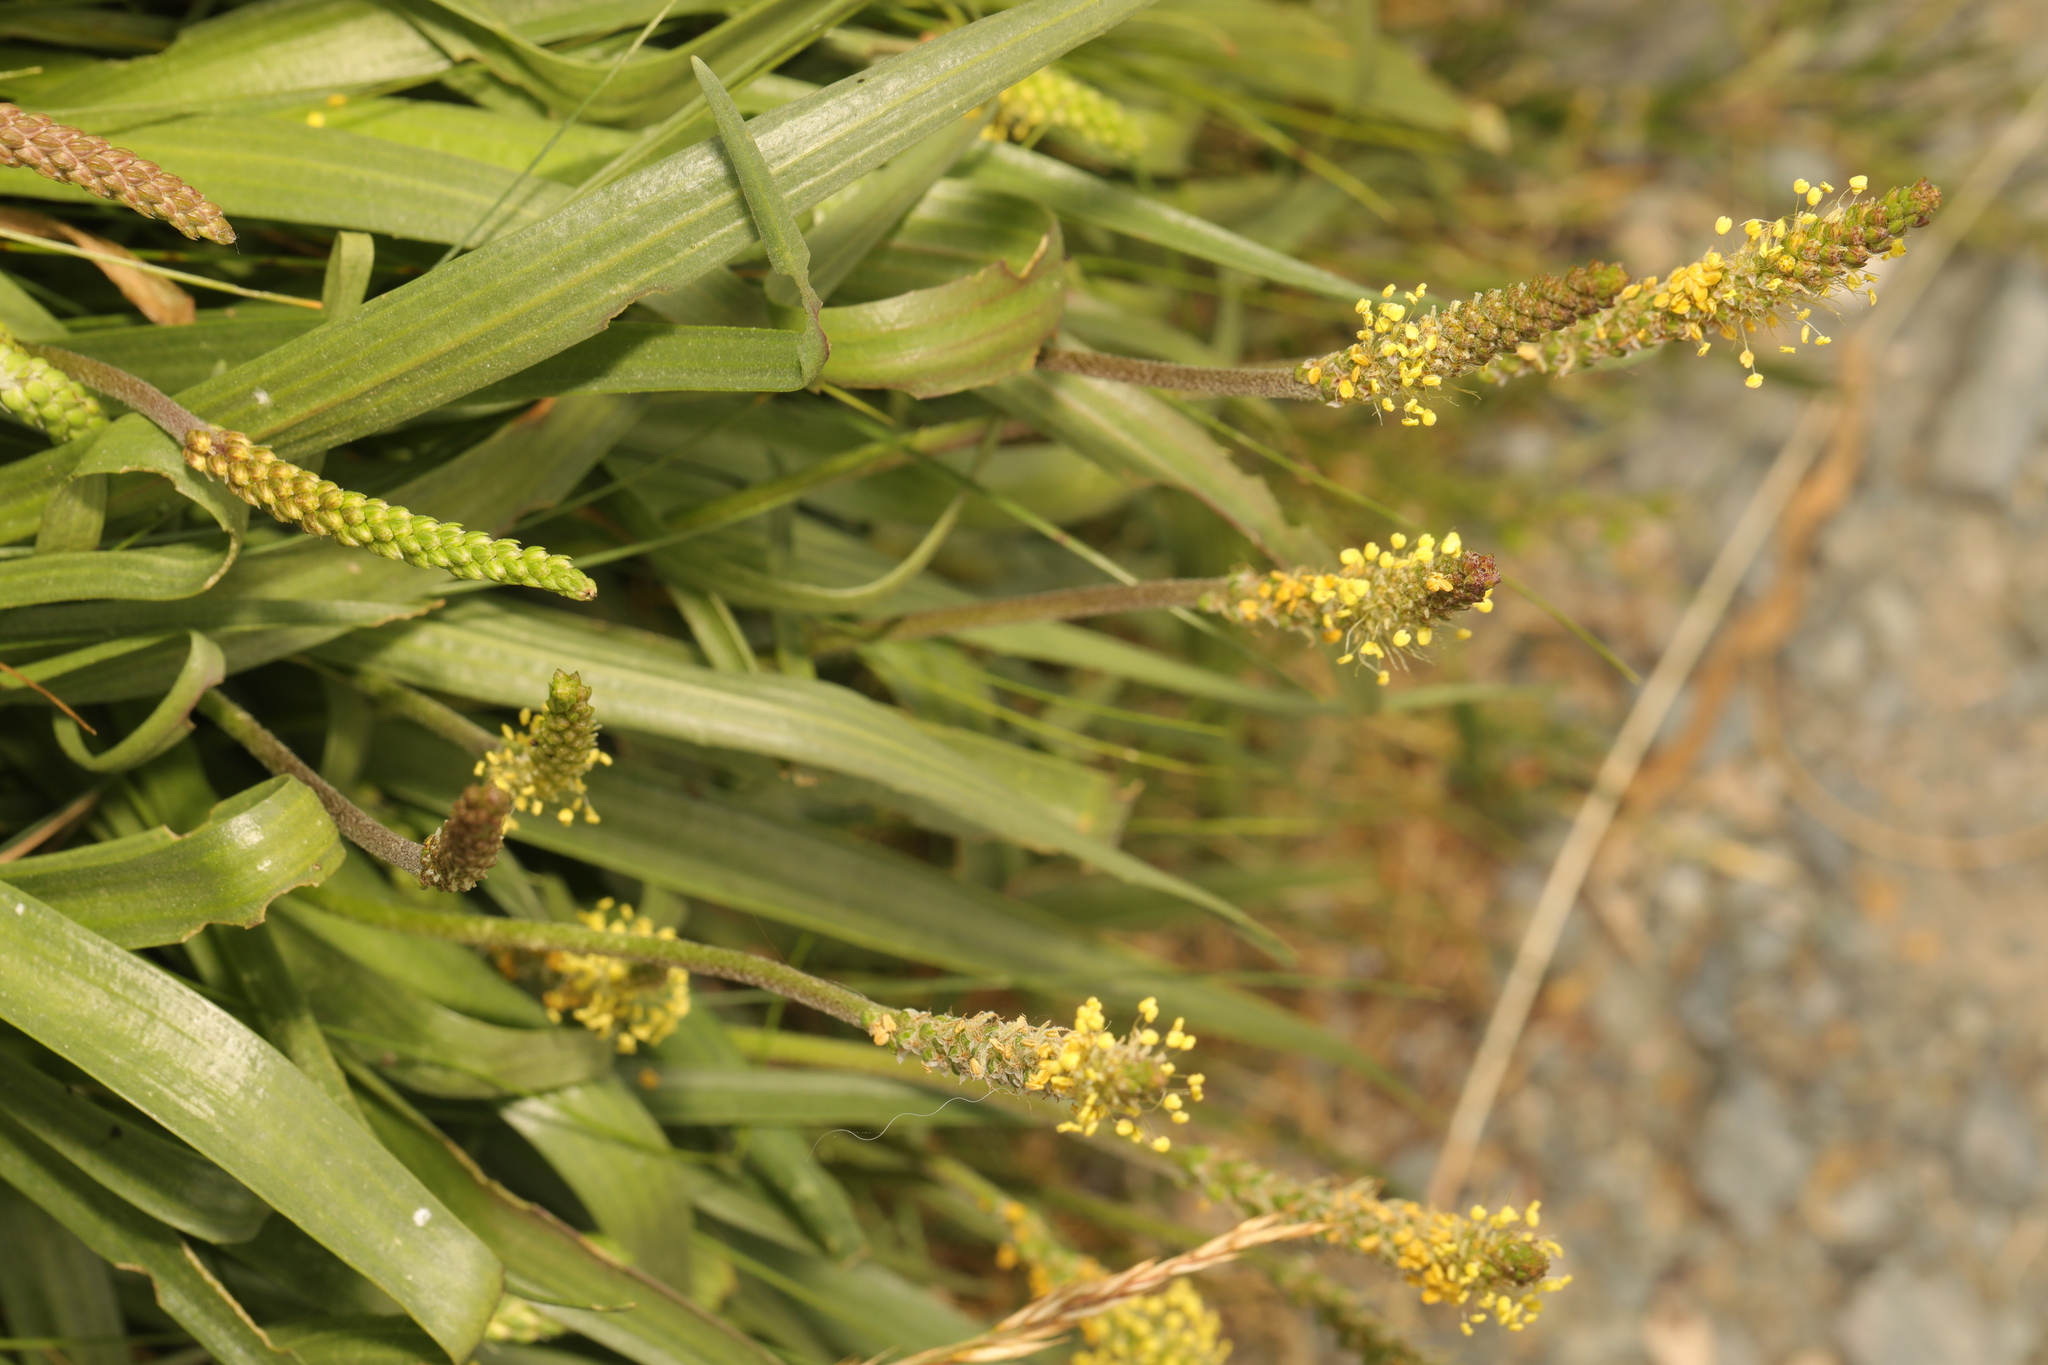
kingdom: Plantae
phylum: Tracheophyta
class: Magnoliopsida
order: Lamiales
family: Plantaginaceae
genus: Plantago
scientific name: Plantago maritima
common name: Sea plantain
